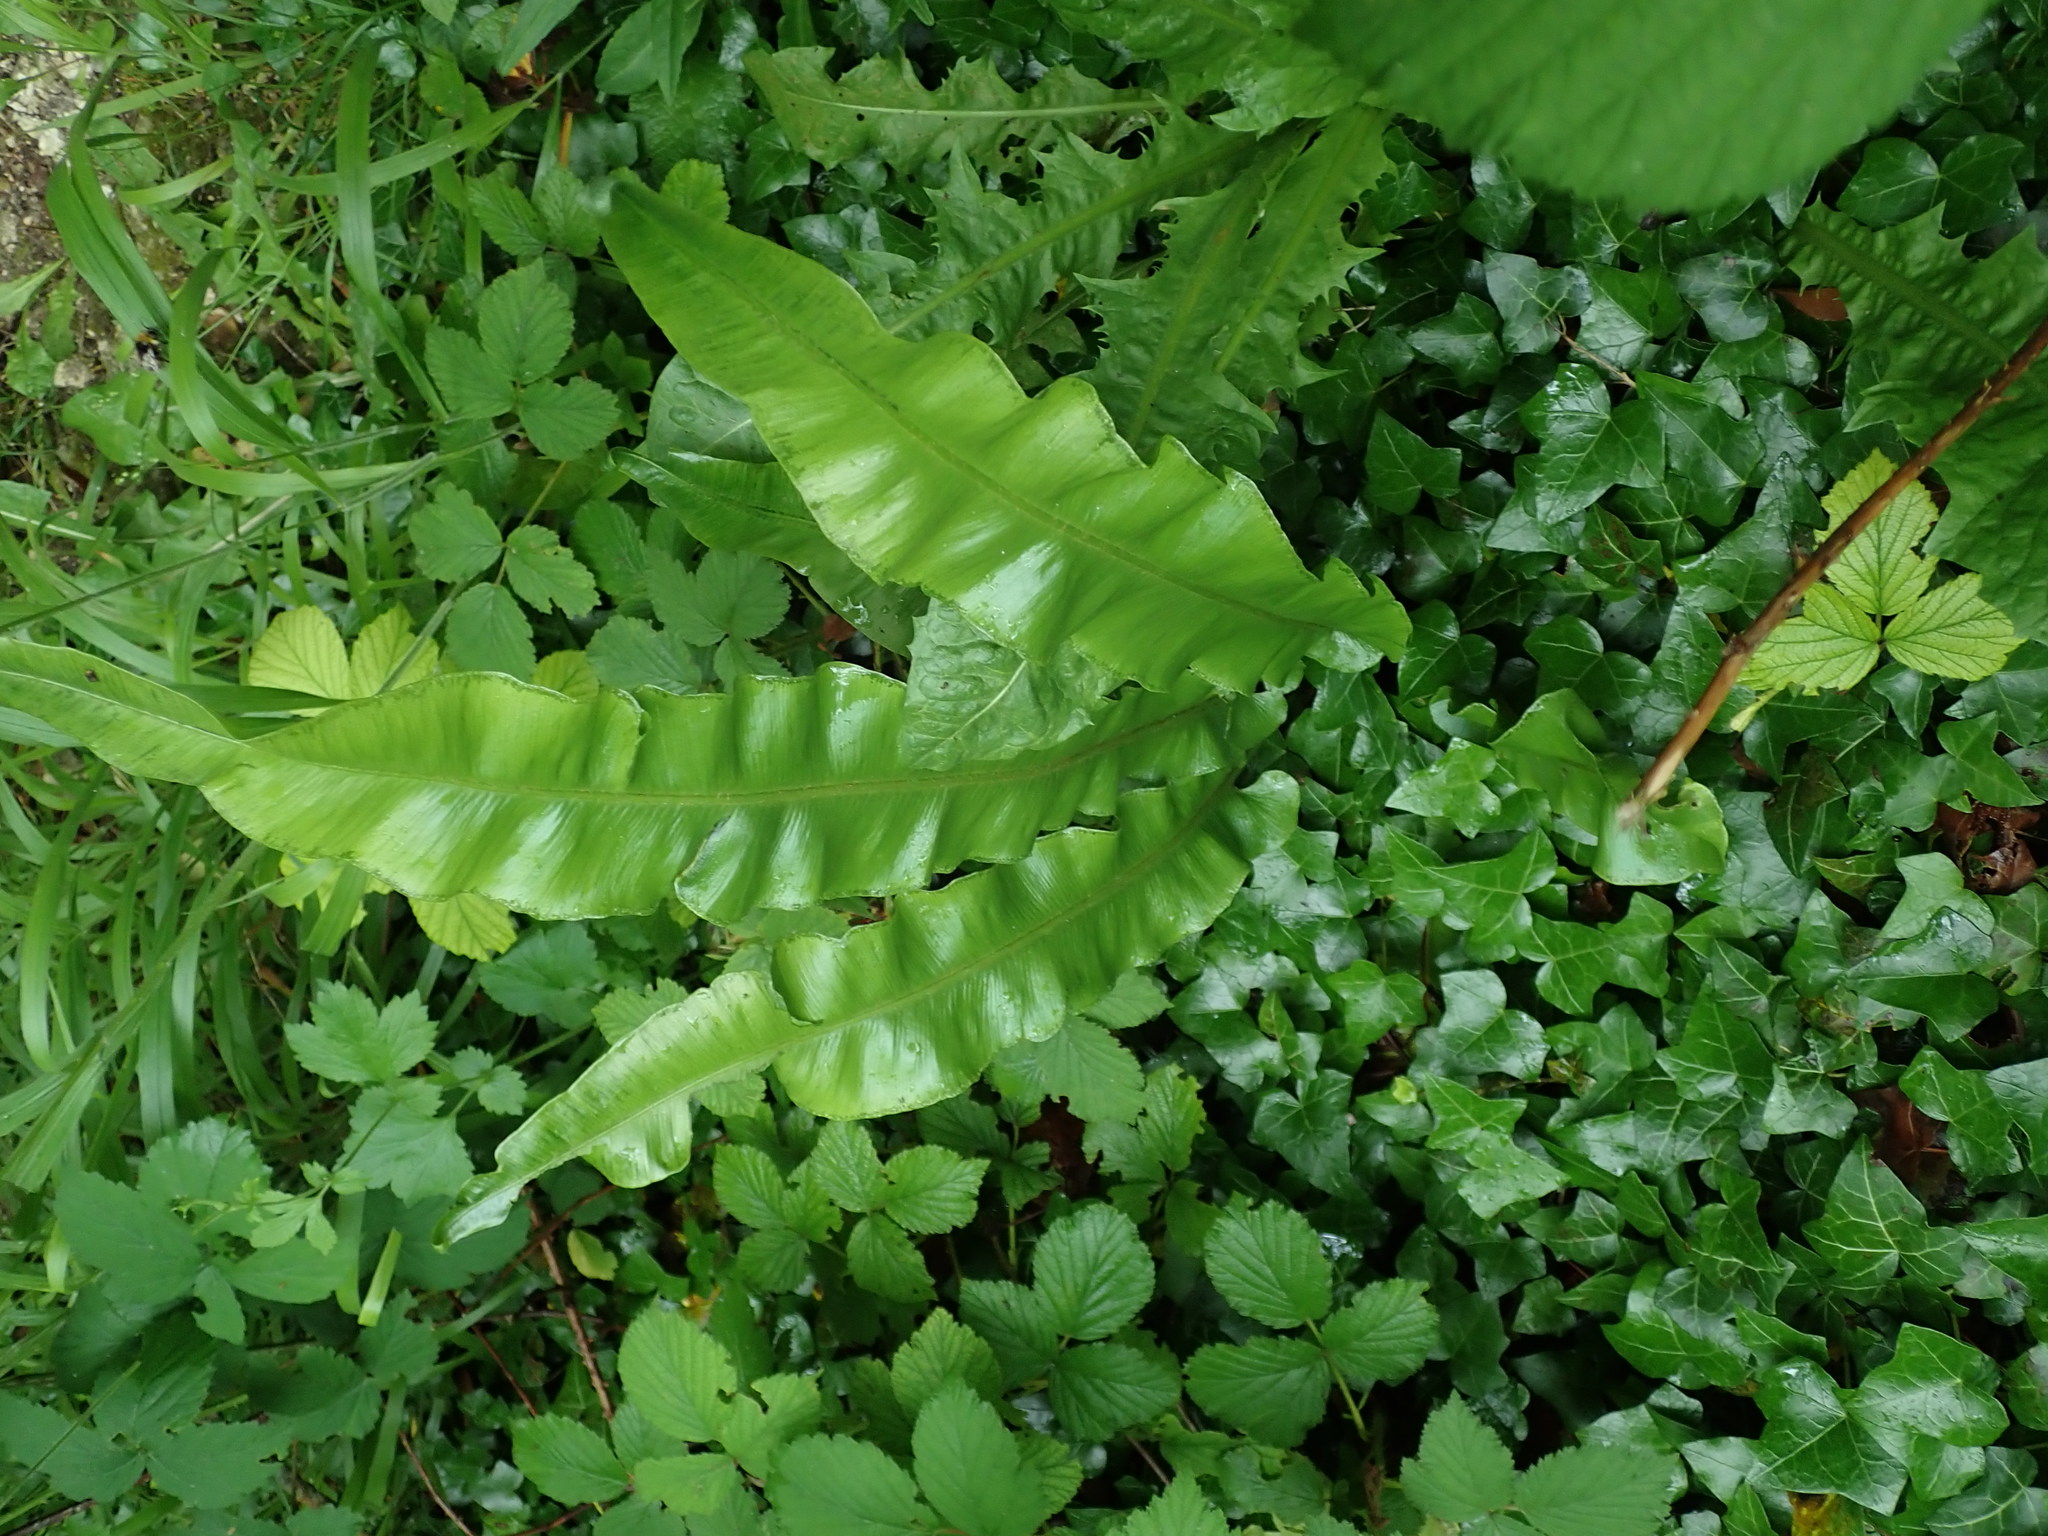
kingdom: Plantae
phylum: Tracheophyta
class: Polypodiopsida
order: Polypodiales
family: Aspleniaceae
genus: Asplenium
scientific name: Asplenium scolopendrium
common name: Hart's-tongue fern
